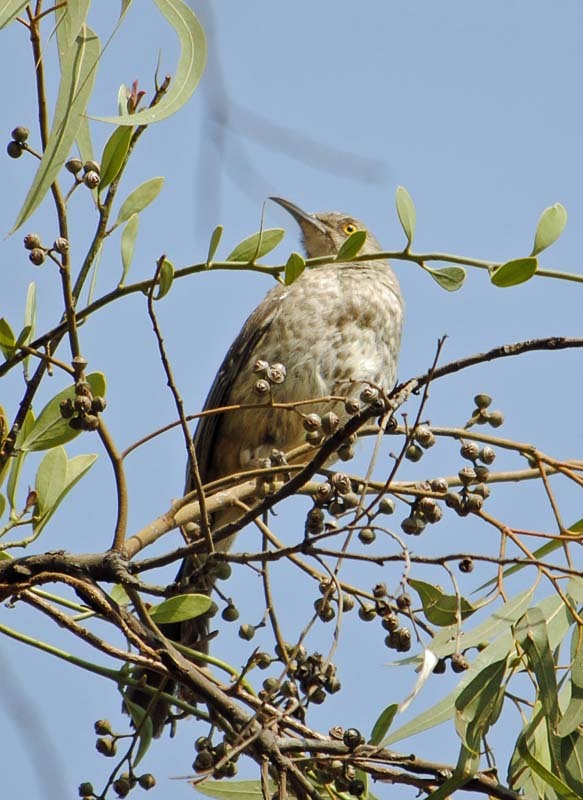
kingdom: Animalia
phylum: Chordata
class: Aves
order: Passeriformes
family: Mimidae
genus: Toxostoma
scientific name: Toxostoma curvirostre
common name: Curve-billed thrasher
